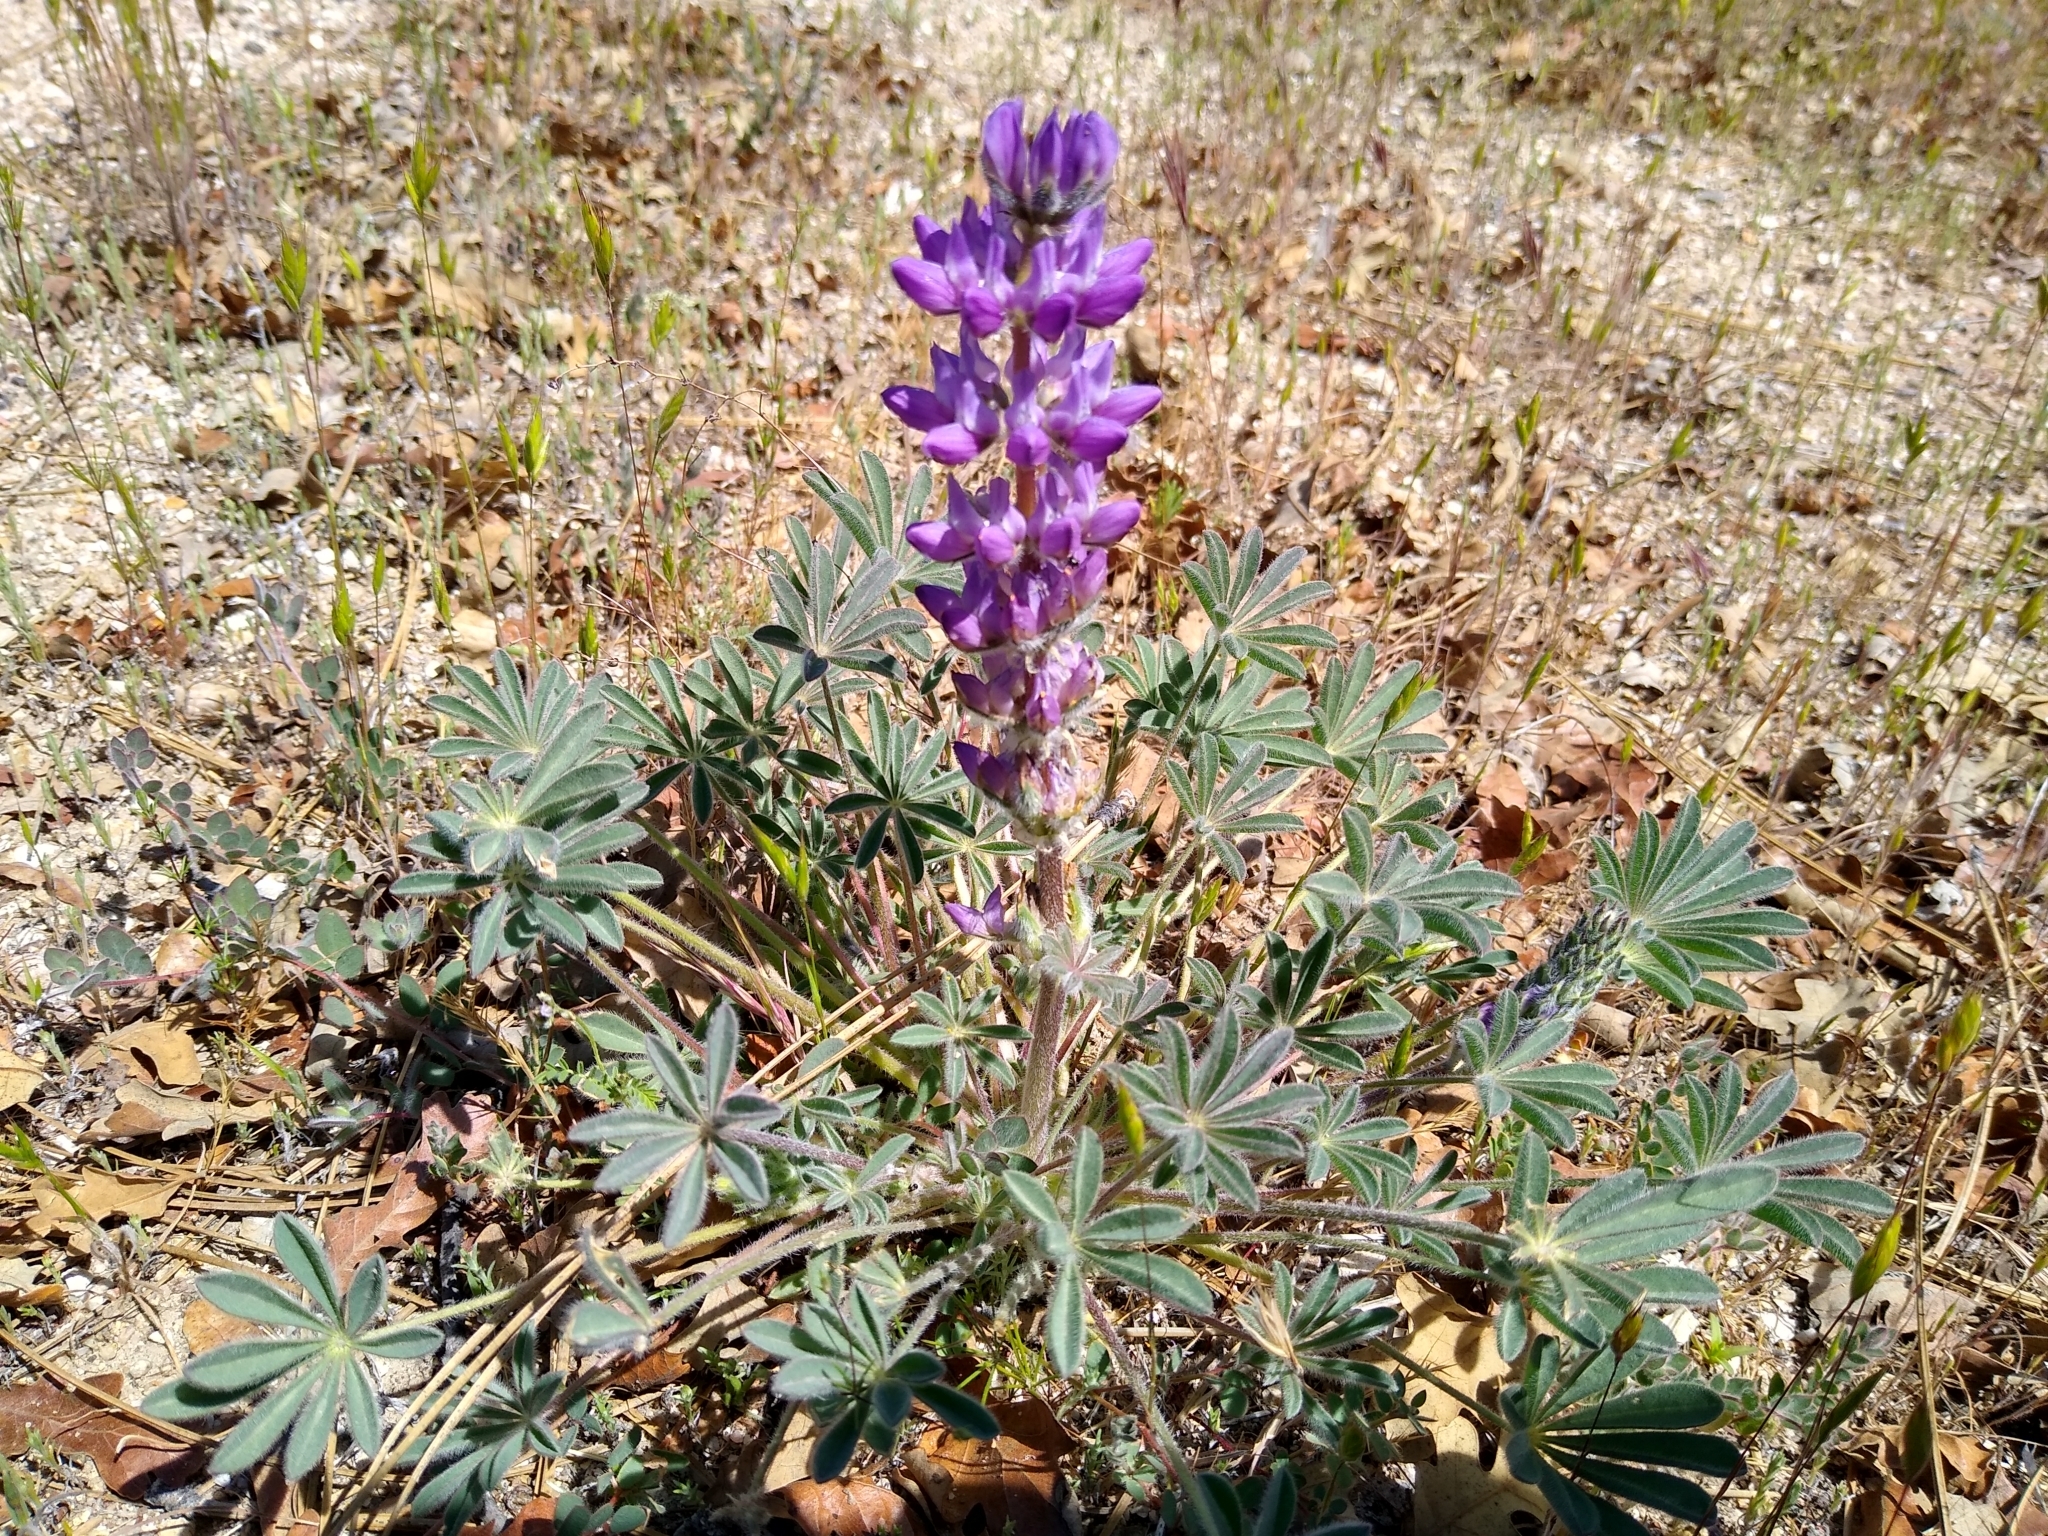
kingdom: Plantae
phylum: Tracheophyta
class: Magnoliopsida
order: Fabales
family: Fabaceae
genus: Lupinus
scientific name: Lupinus microcarpus
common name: Chick lupine
